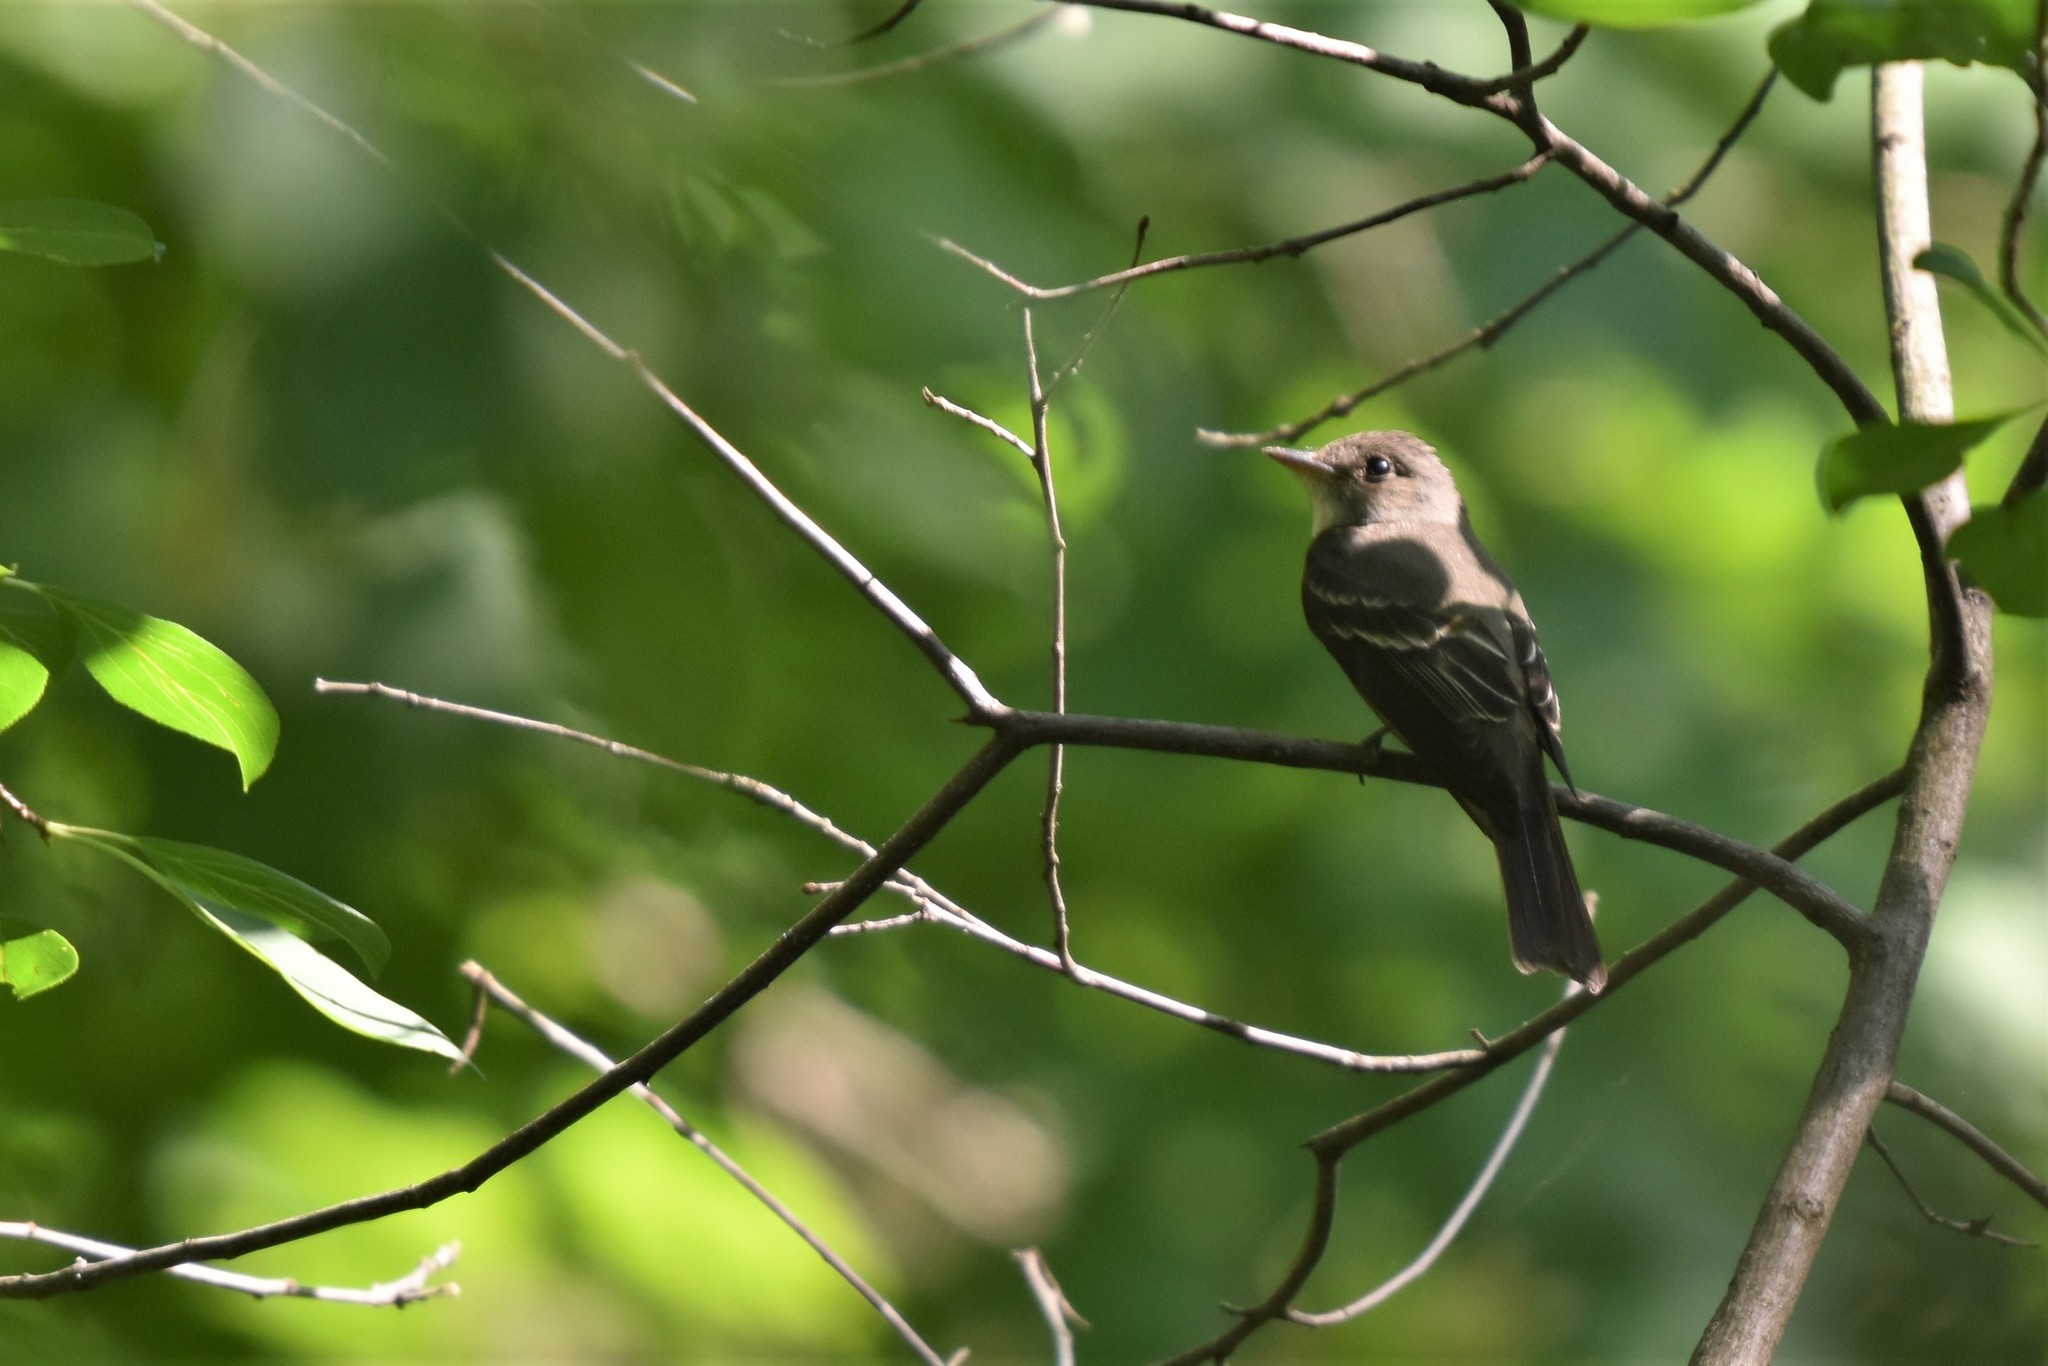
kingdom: Animalia
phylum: Chordata
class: Aves
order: Passeriformes
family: Tyrannidae
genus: Contopus
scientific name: Contopus virens
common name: Eastern wood-pewee
